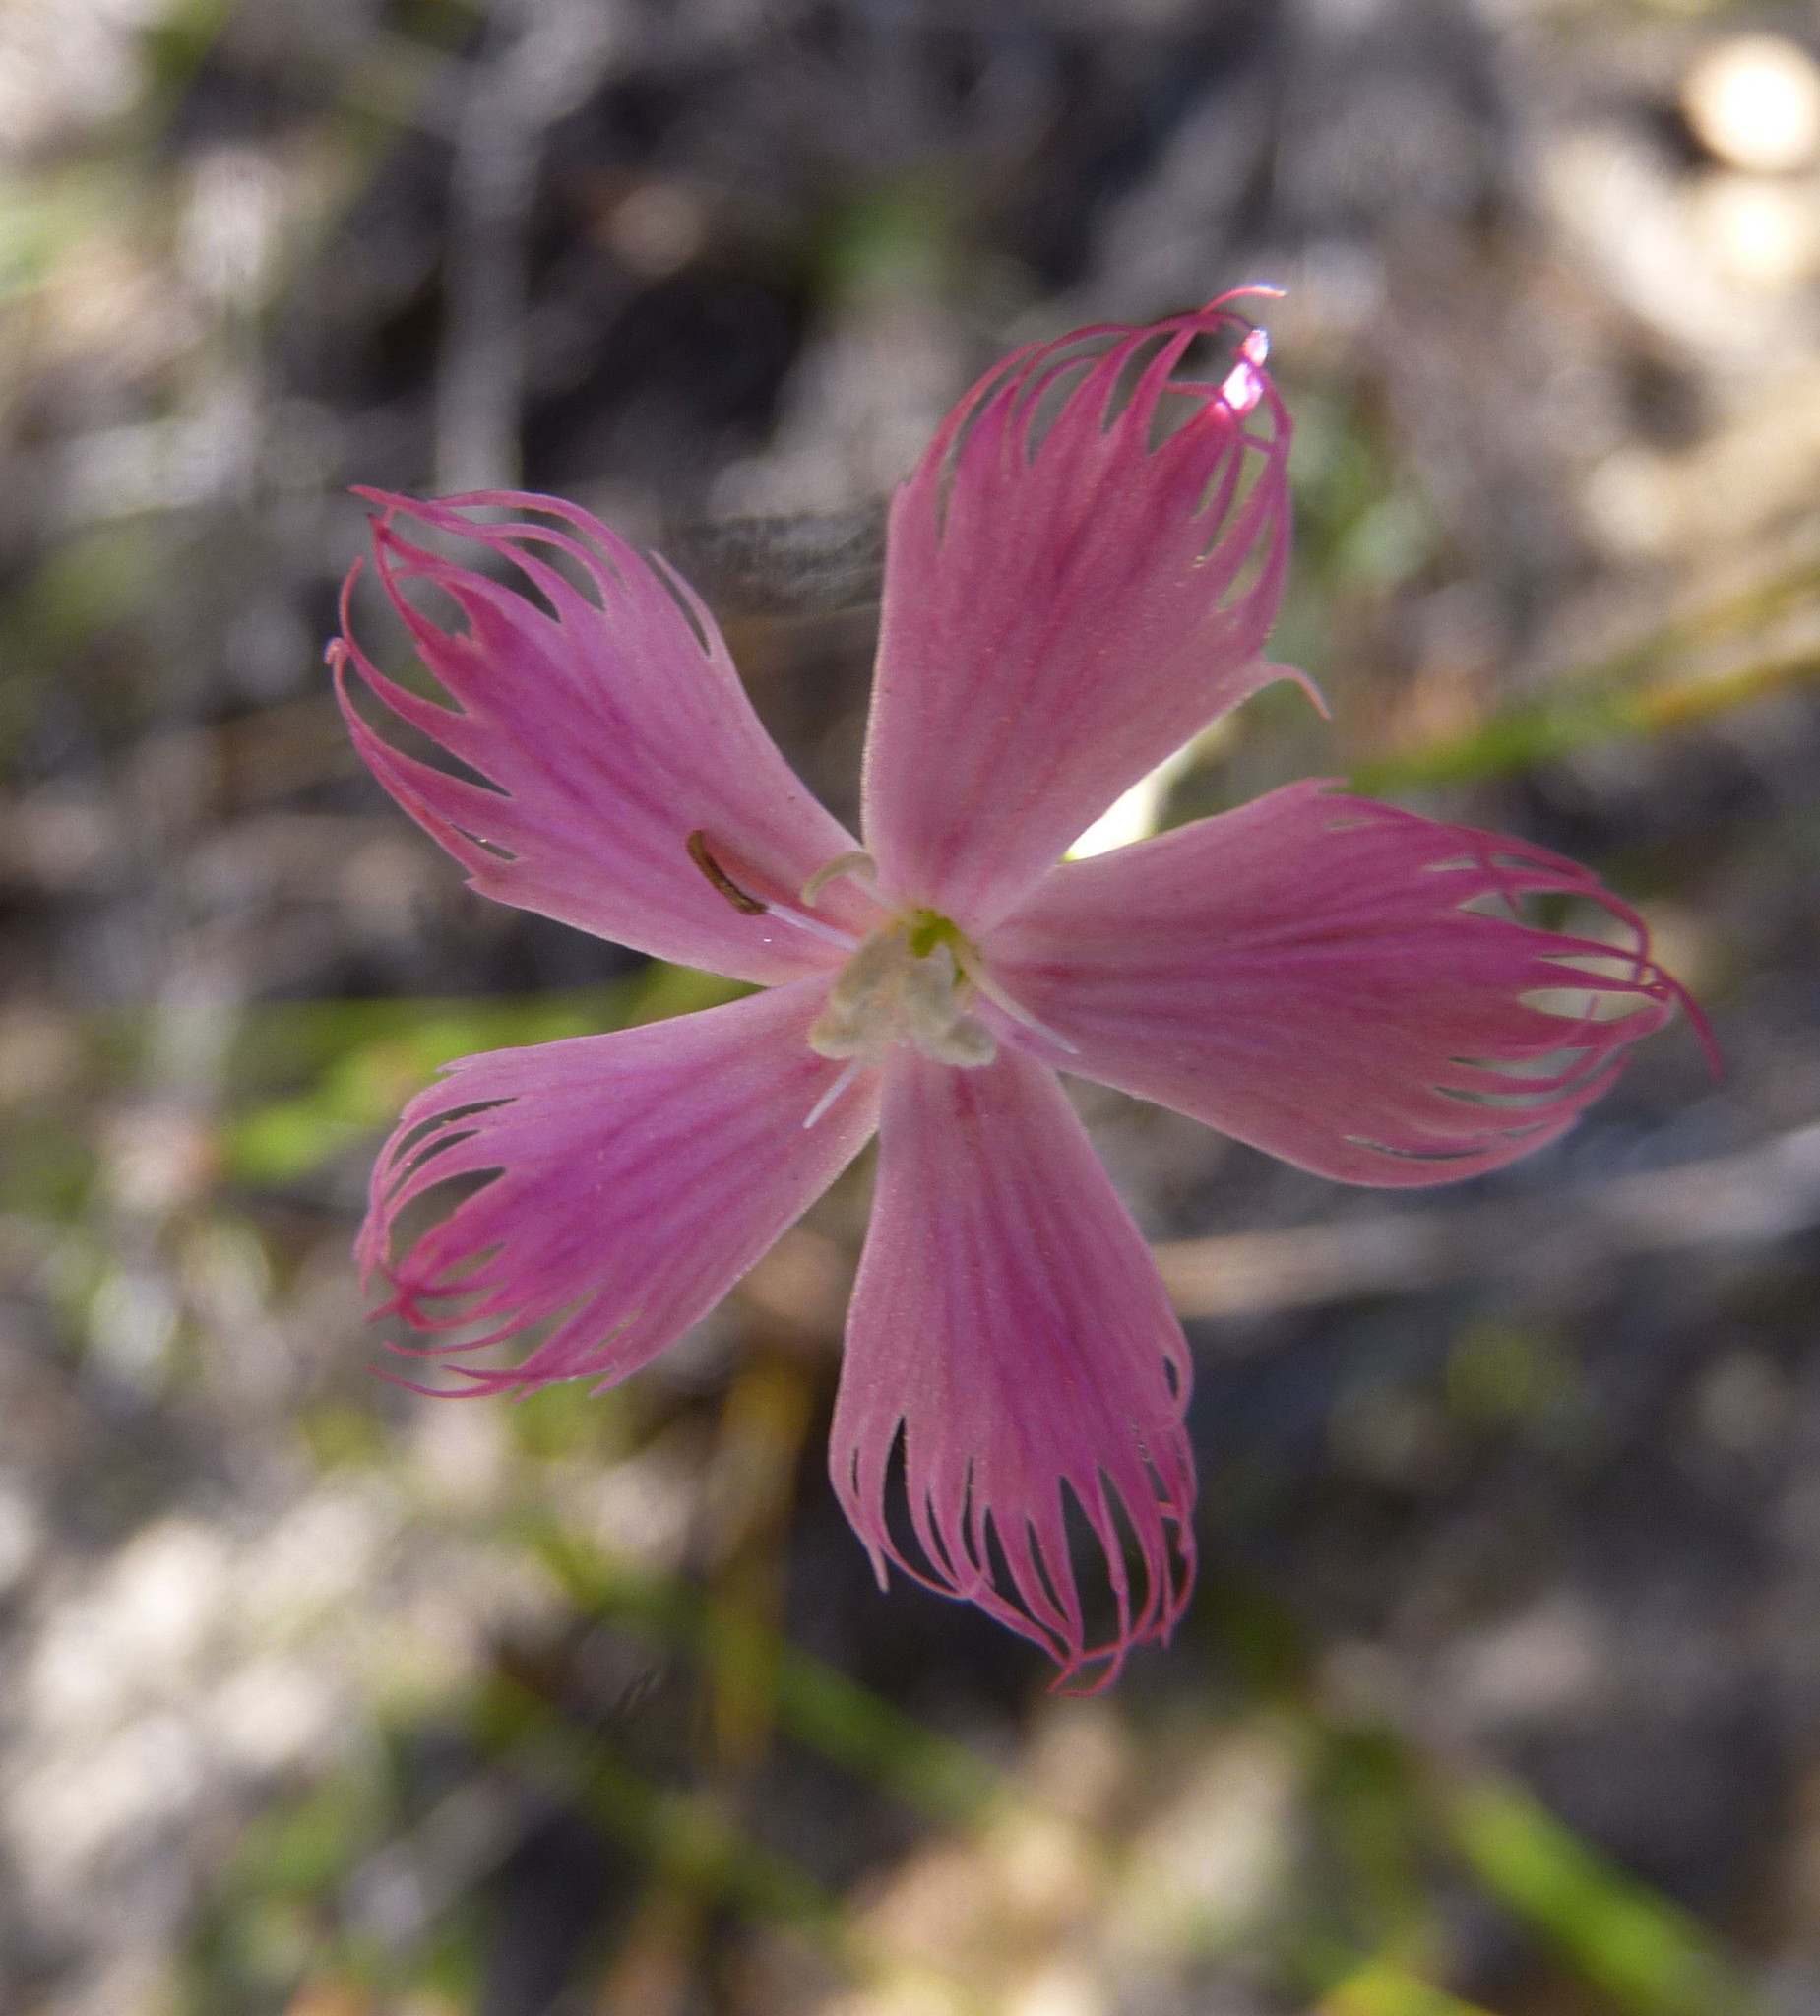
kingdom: Plantae
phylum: Tracheophyta
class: Magnoliopsida
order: Caryophyllales
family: Caryophyllaceae
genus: Dianthus
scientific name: Dianthus bolusii
